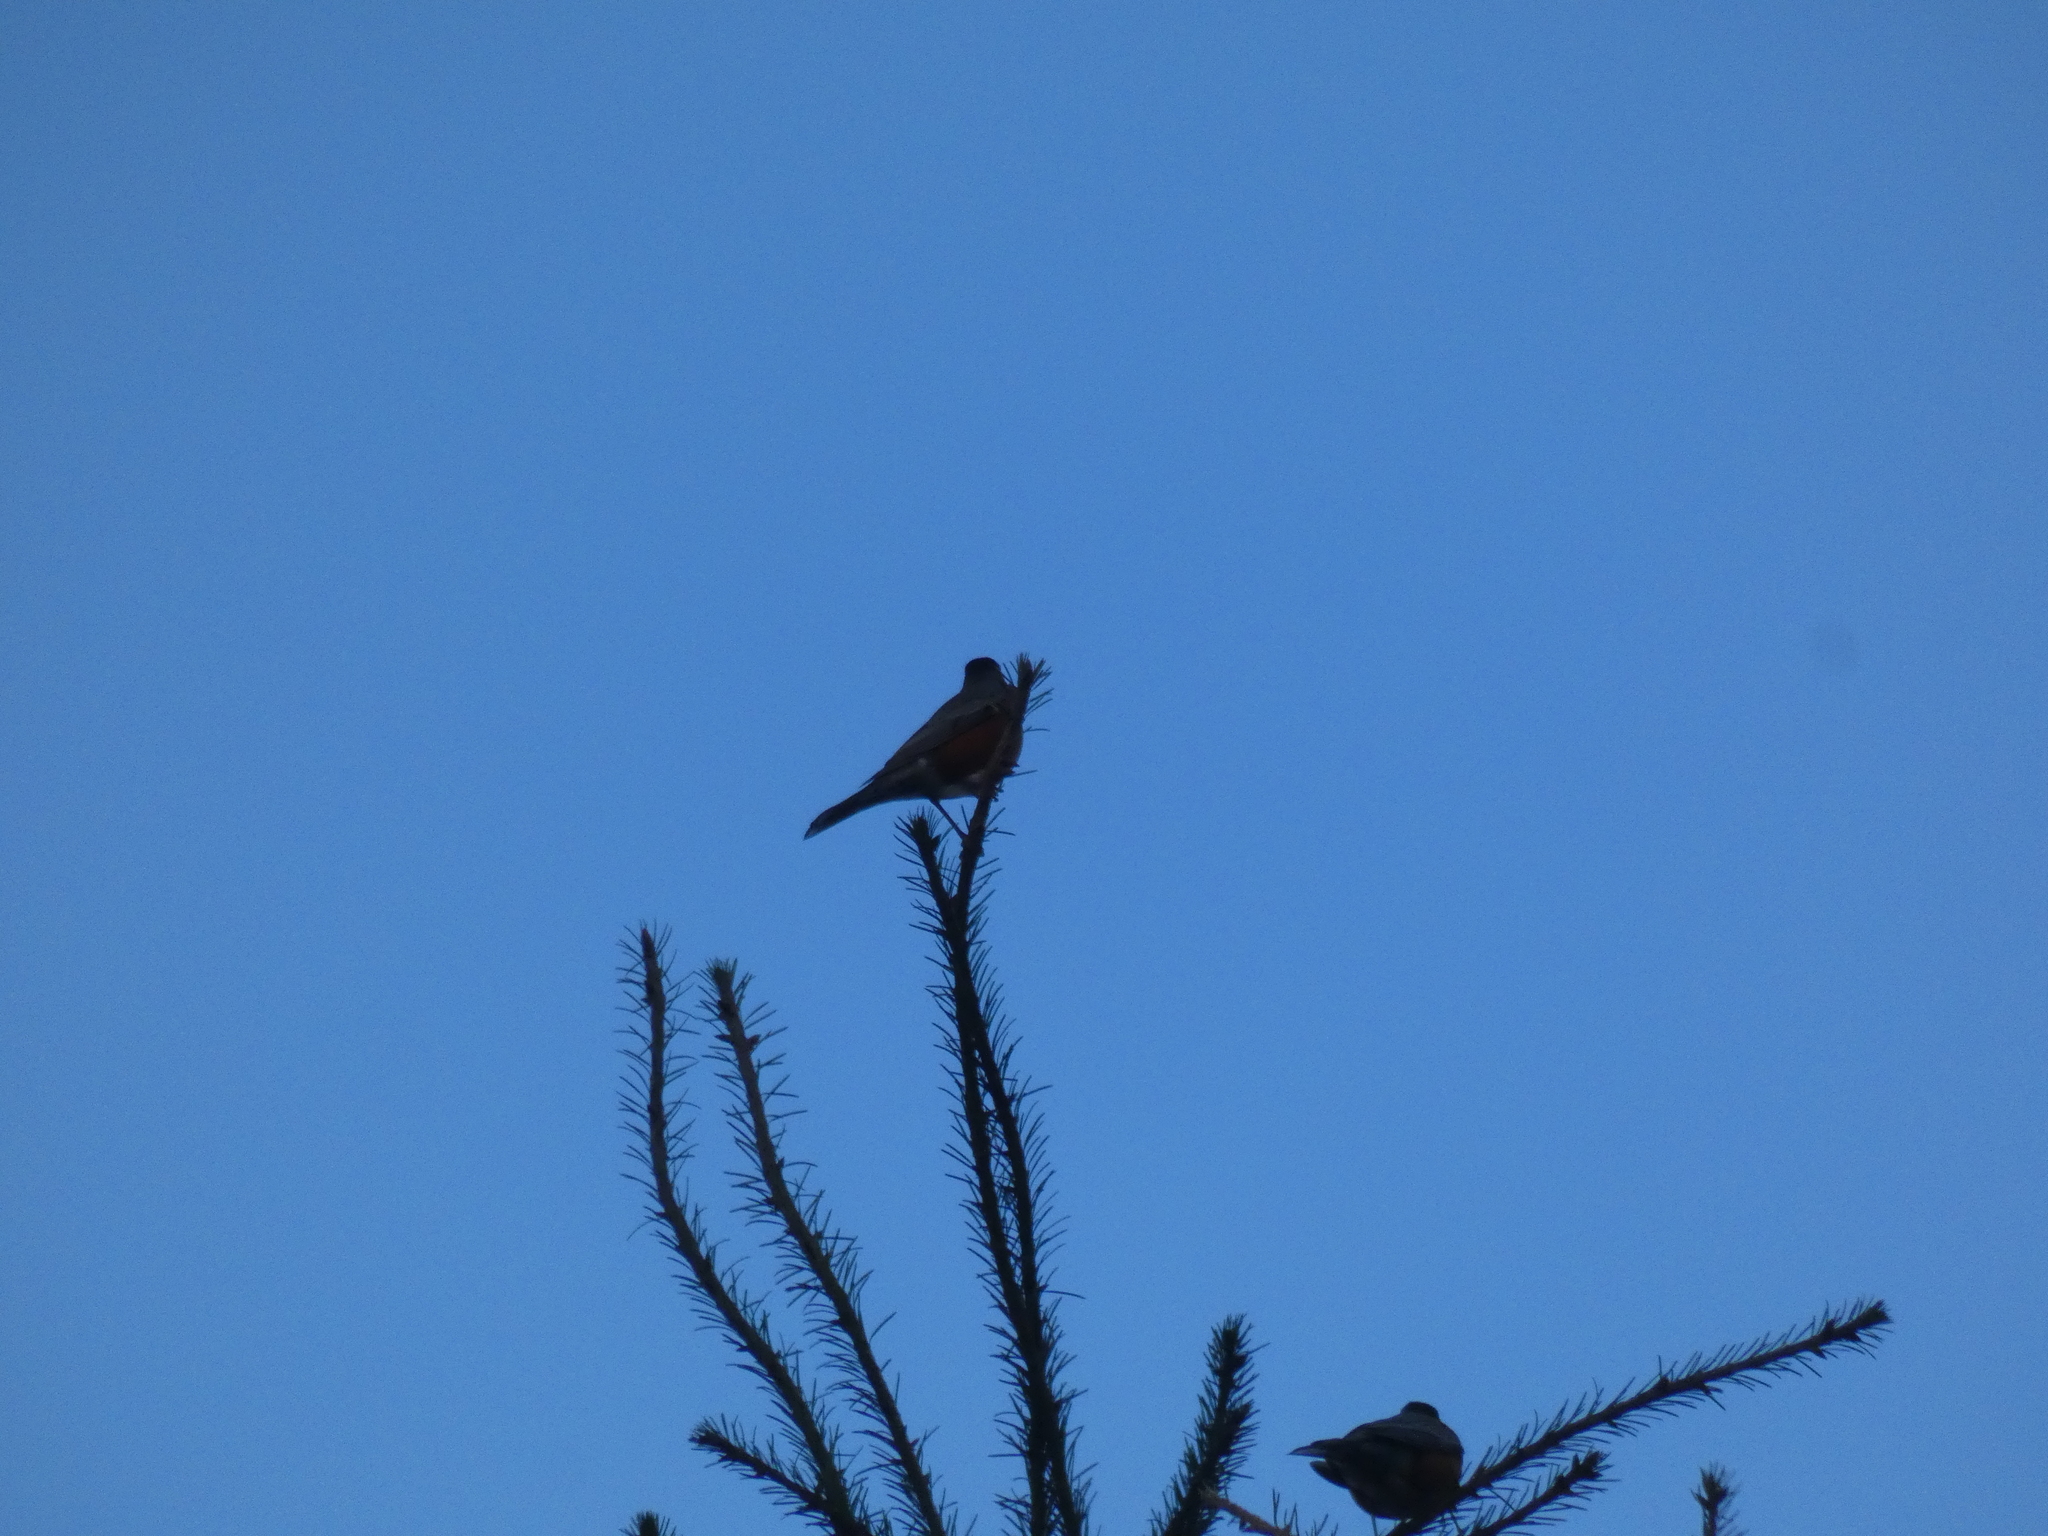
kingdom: Animalia
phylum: Chordata
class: Aves
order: Passeriformes
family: Turdidae
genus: Turdus
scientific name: Turdus migratorius
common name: American robin
